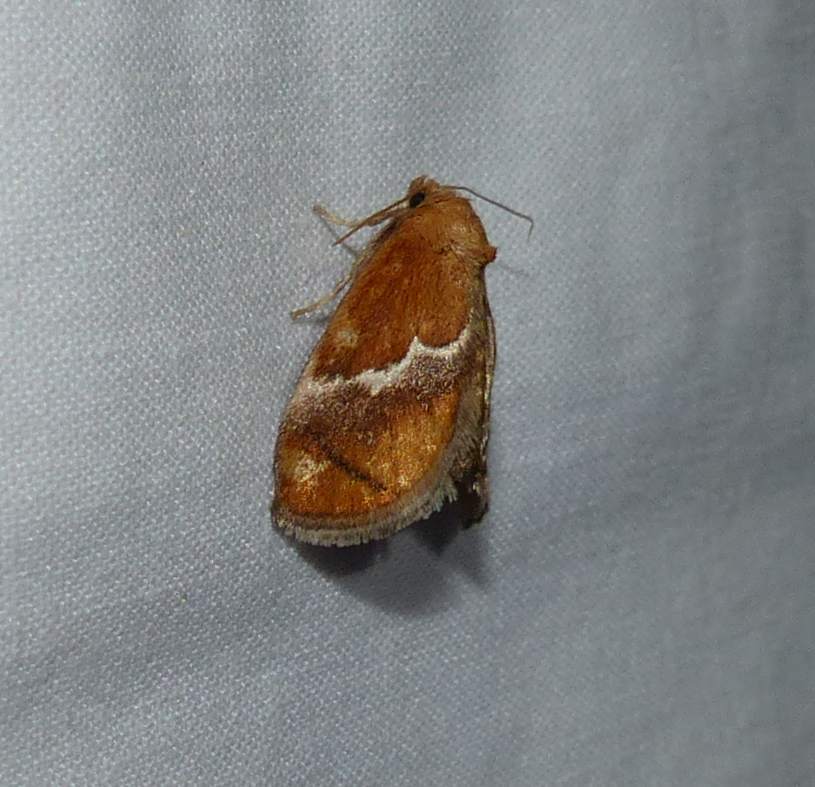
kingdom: Animalia
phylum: Arthropoda
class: Insecta
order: Lepidoptera
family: Limacodidae
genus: Lithacodes
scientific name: Lithacodes fasciola
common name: Yellow-shouldered slug moth
